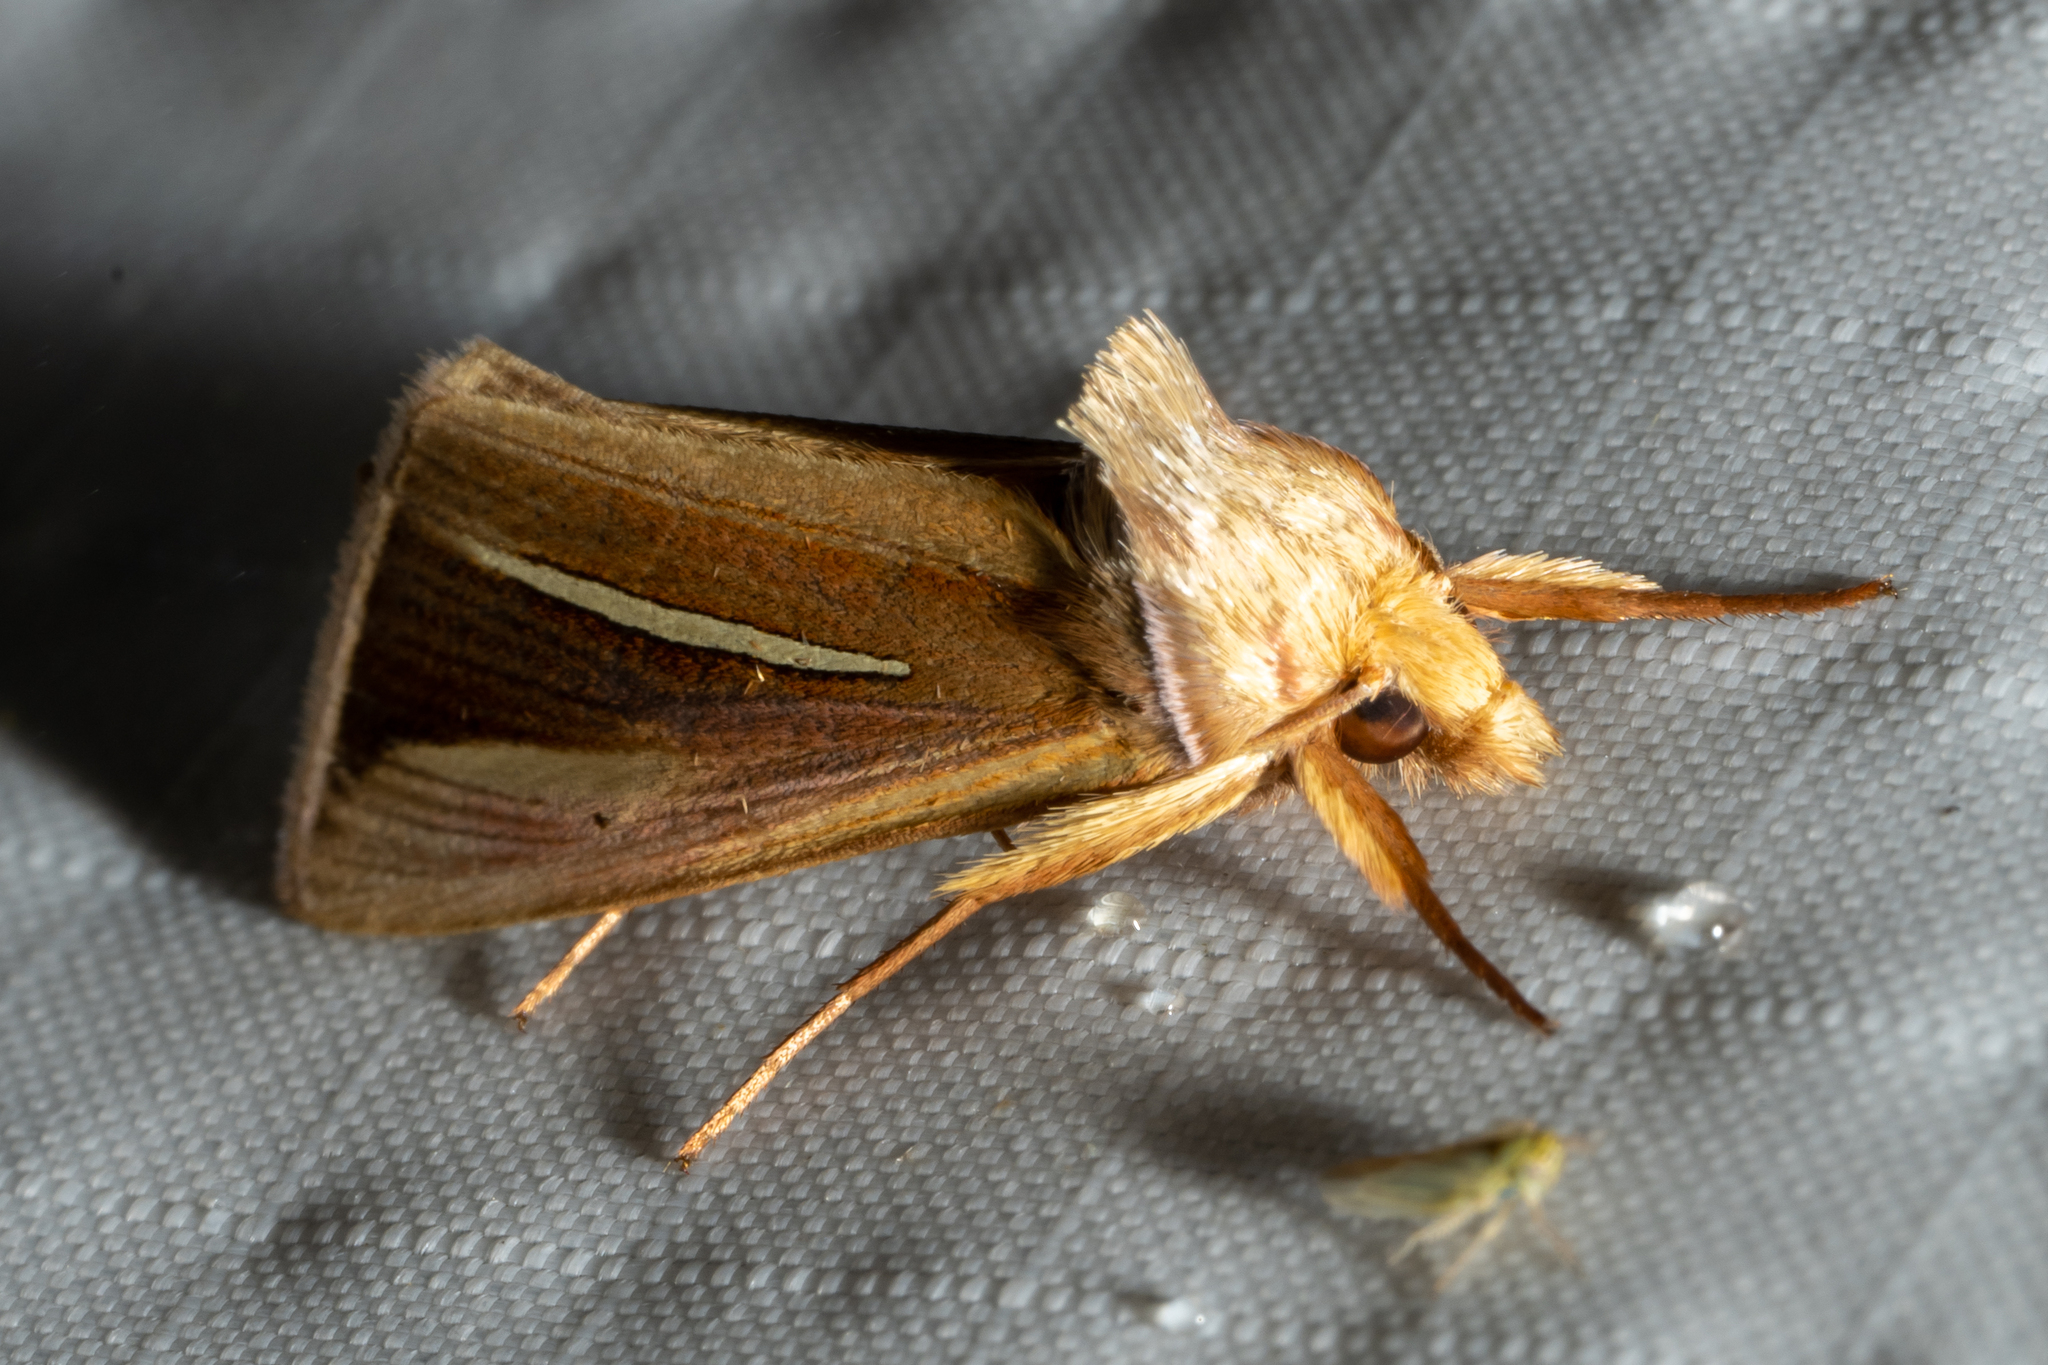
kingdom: Animalia
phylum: Arthropoda
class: Insecta
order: Lepidoptera
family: Noctuidae
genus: Plusia
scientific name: Plusia venusta
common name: White-streaked looper moth
